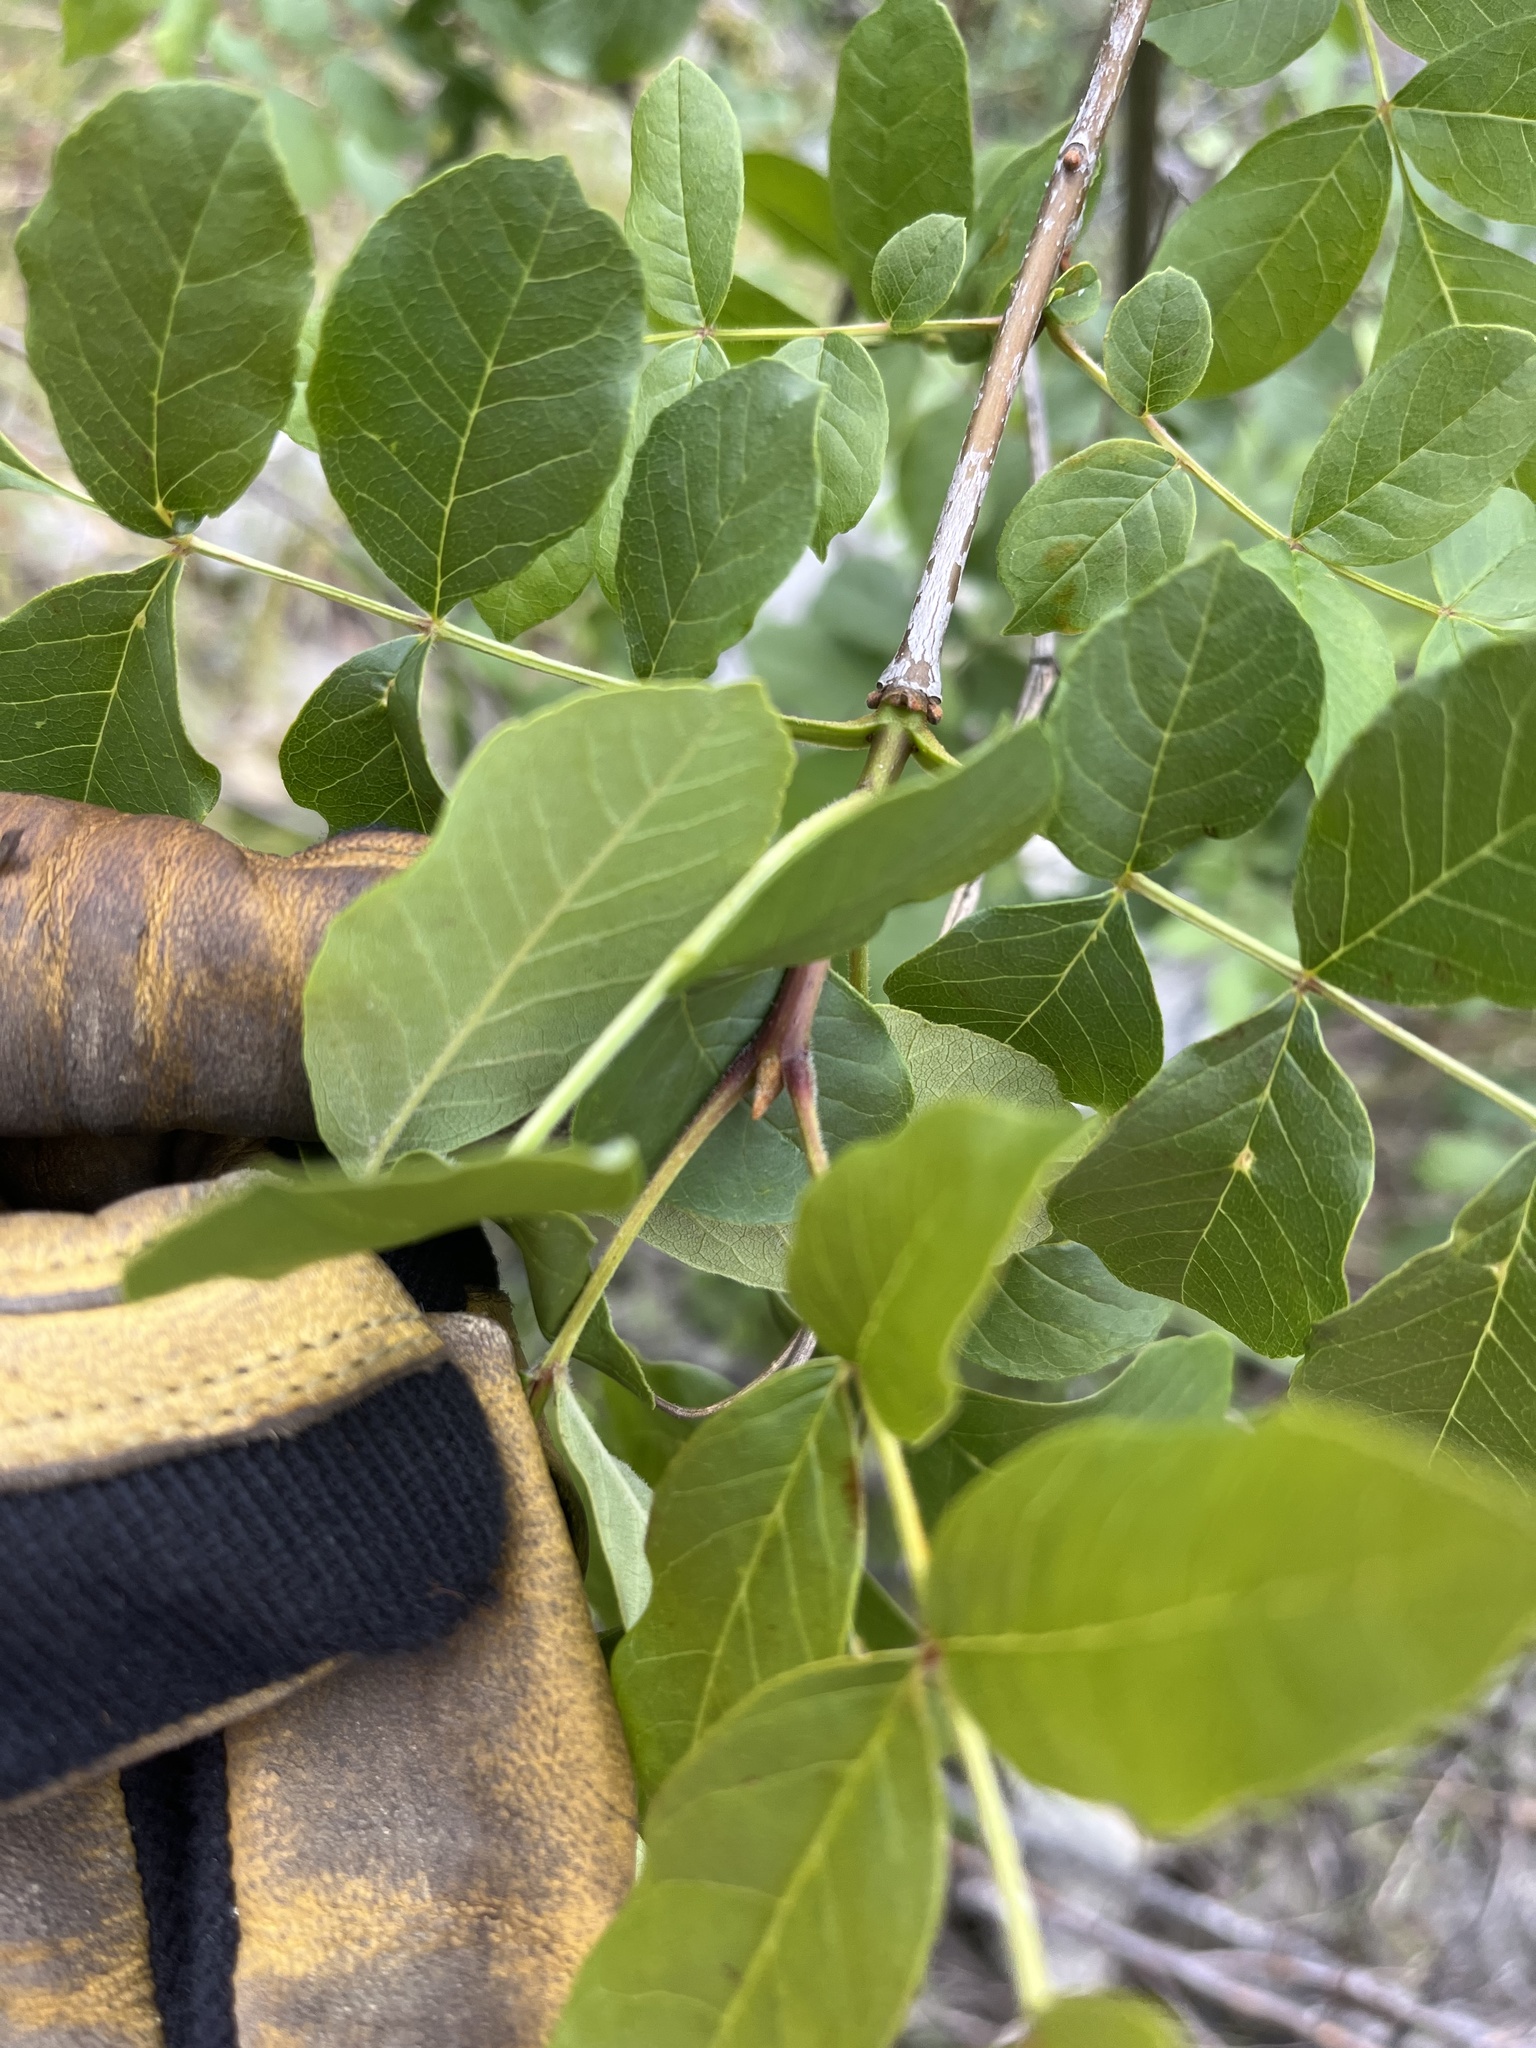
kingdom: Plantae
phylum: Tracheophyta
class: Magnoliopsida
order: Lamiales
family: Oleaceae
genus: Fraxinus
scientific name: Fraxinus latifolia
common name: Oregon ash
